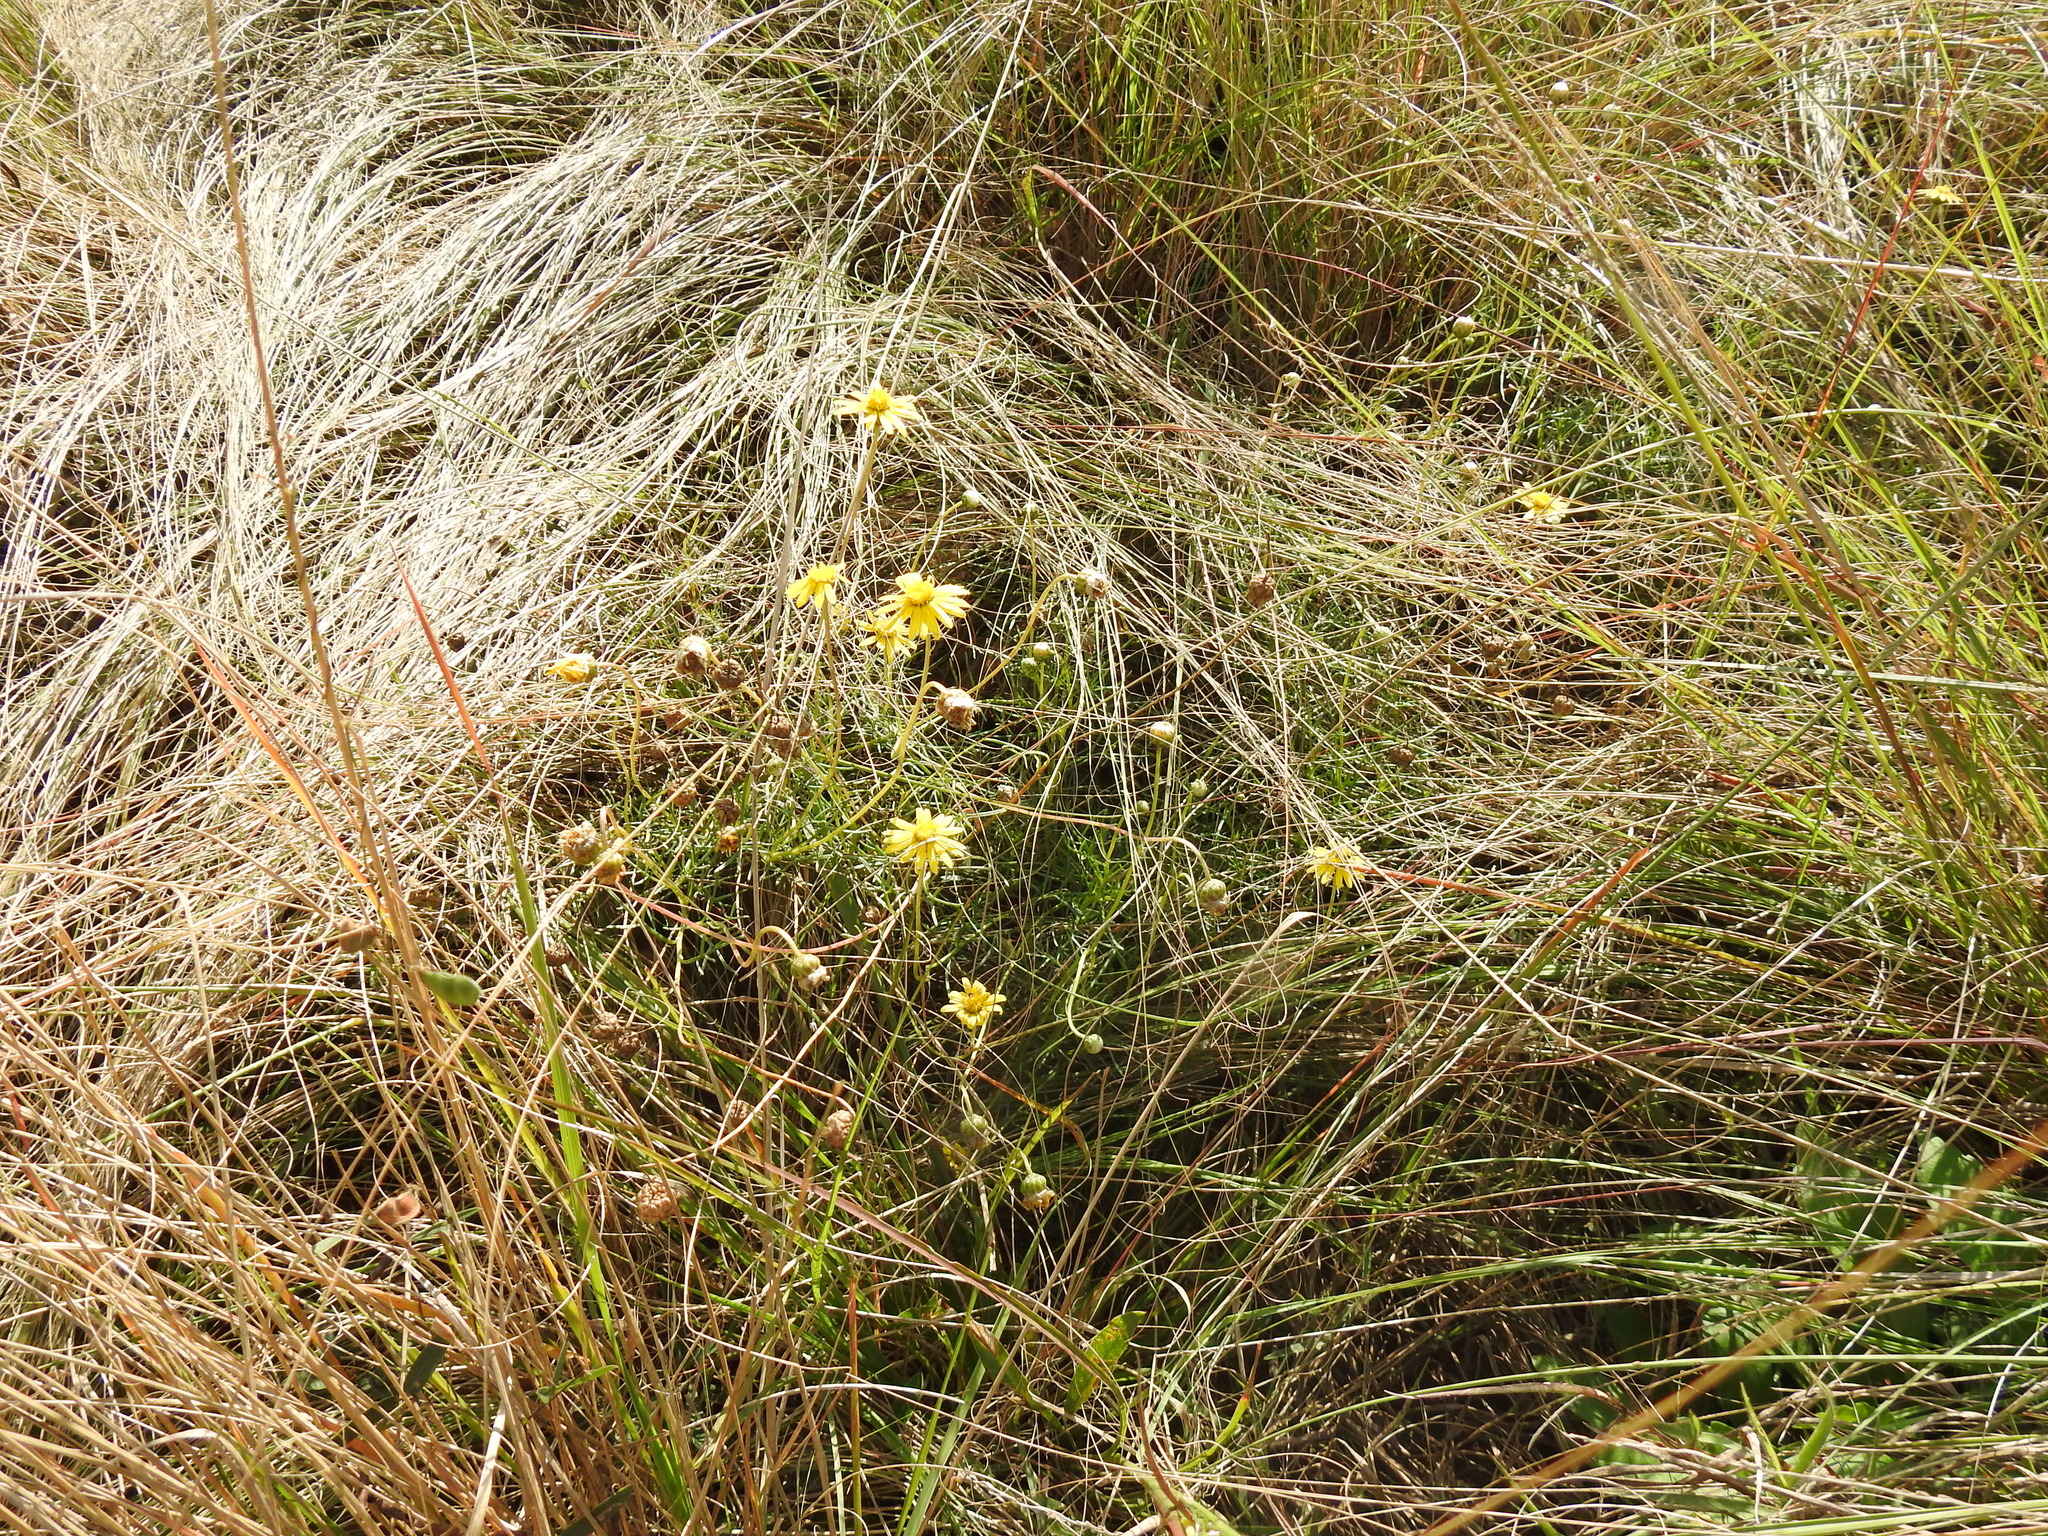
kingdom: Plantae
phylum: Tracheophyta
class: Magnoliopsida
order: Asterales
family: Asteraceae
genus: Ursinia
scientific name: Ursinia nana
